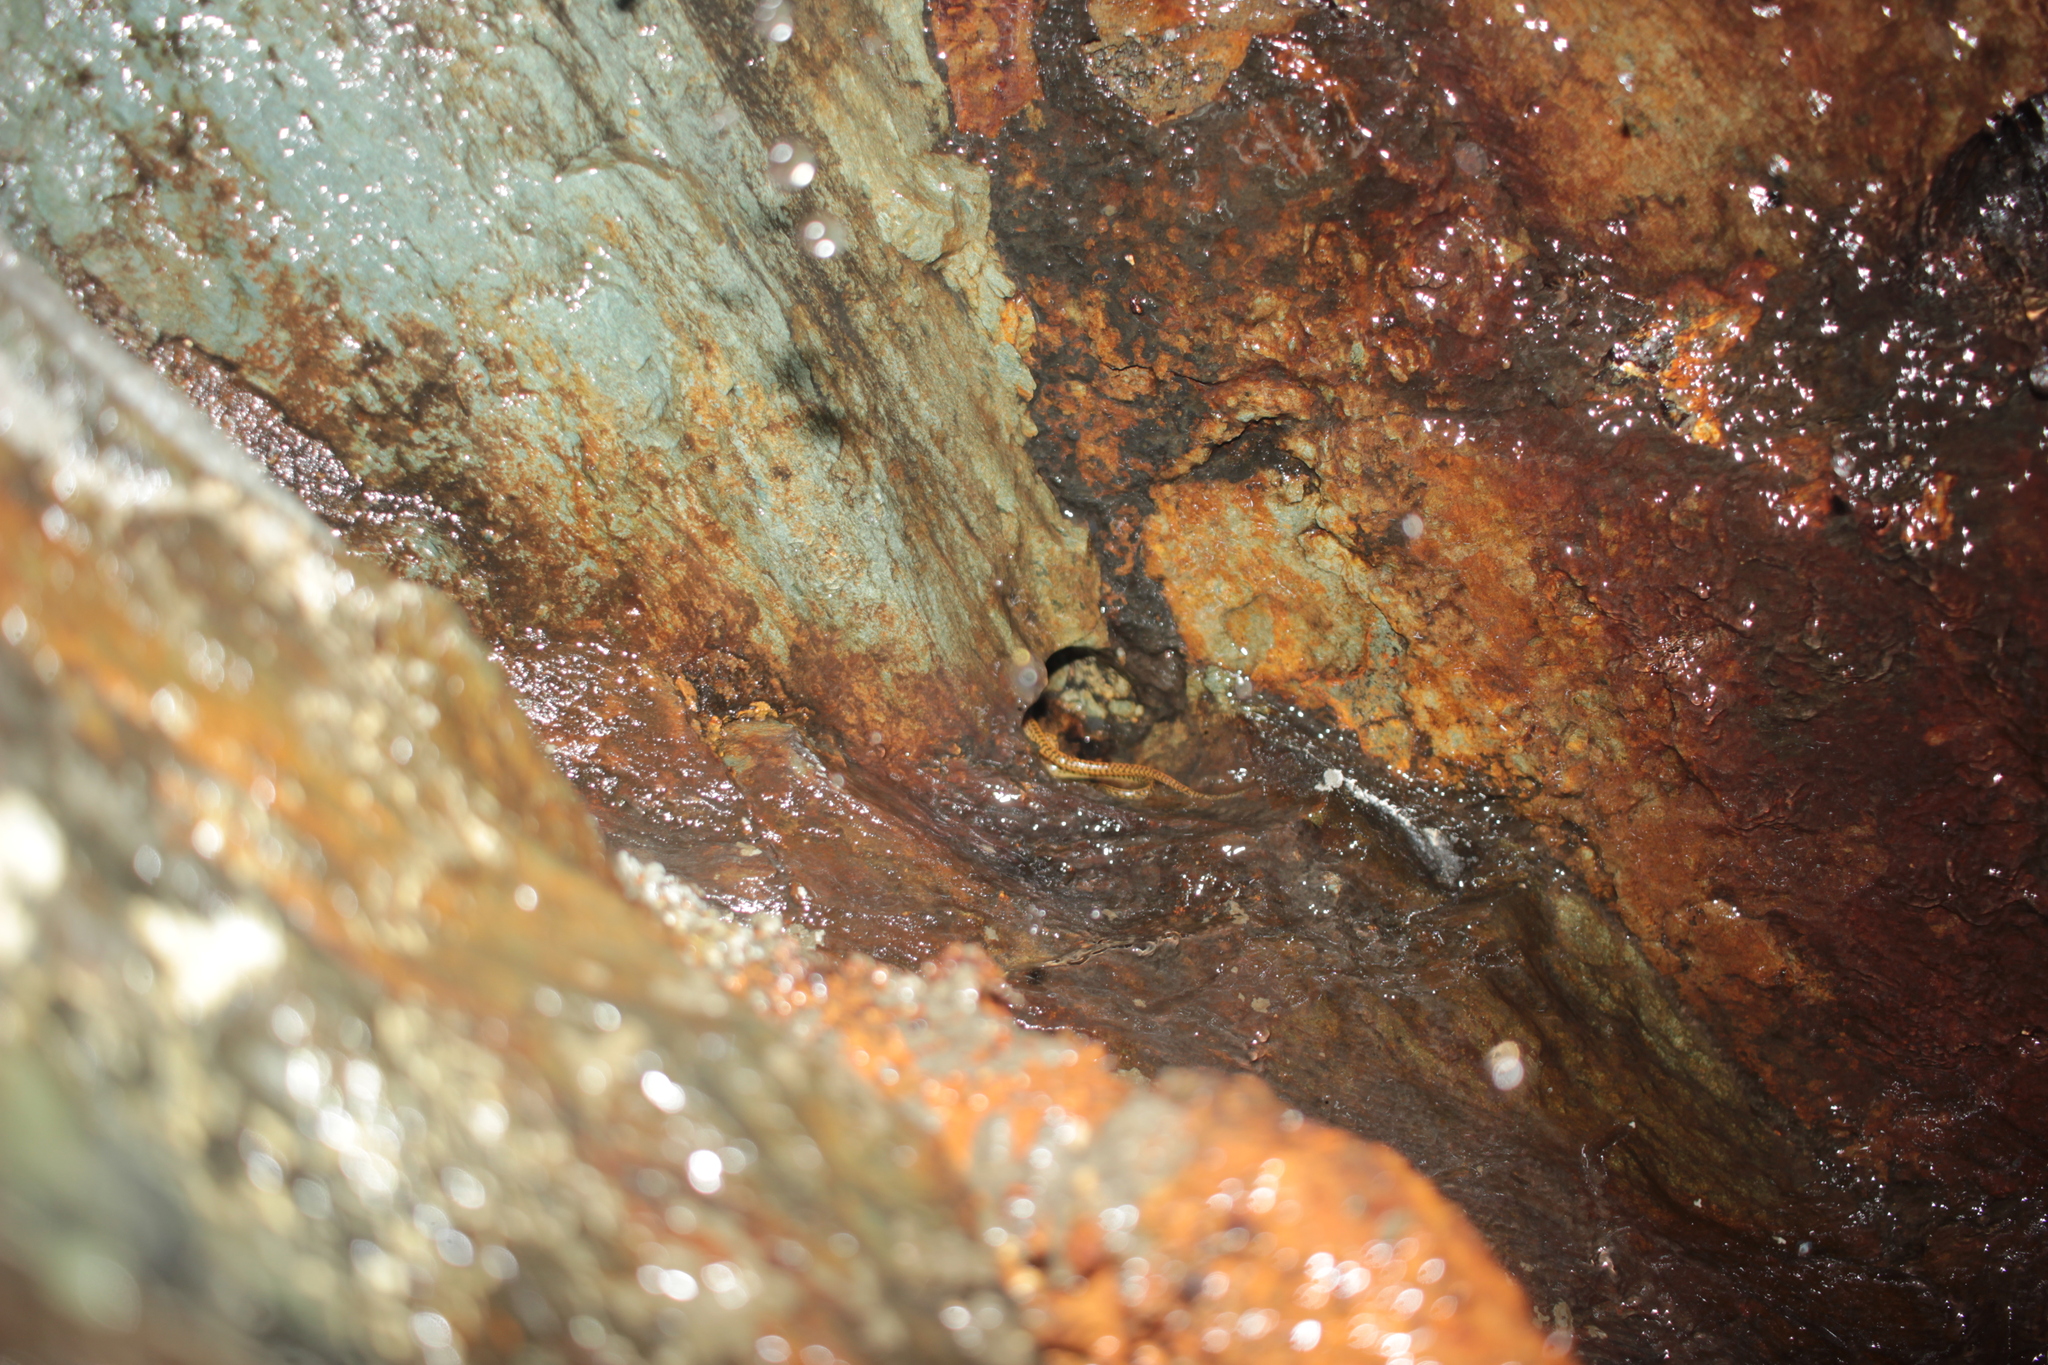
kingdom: Animalia
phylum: Chordata
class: Amphibia
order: Caudata
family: Plethodontidae
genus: Eurycea
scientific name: Eurycea longicauda
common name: Long-tailed salamander
